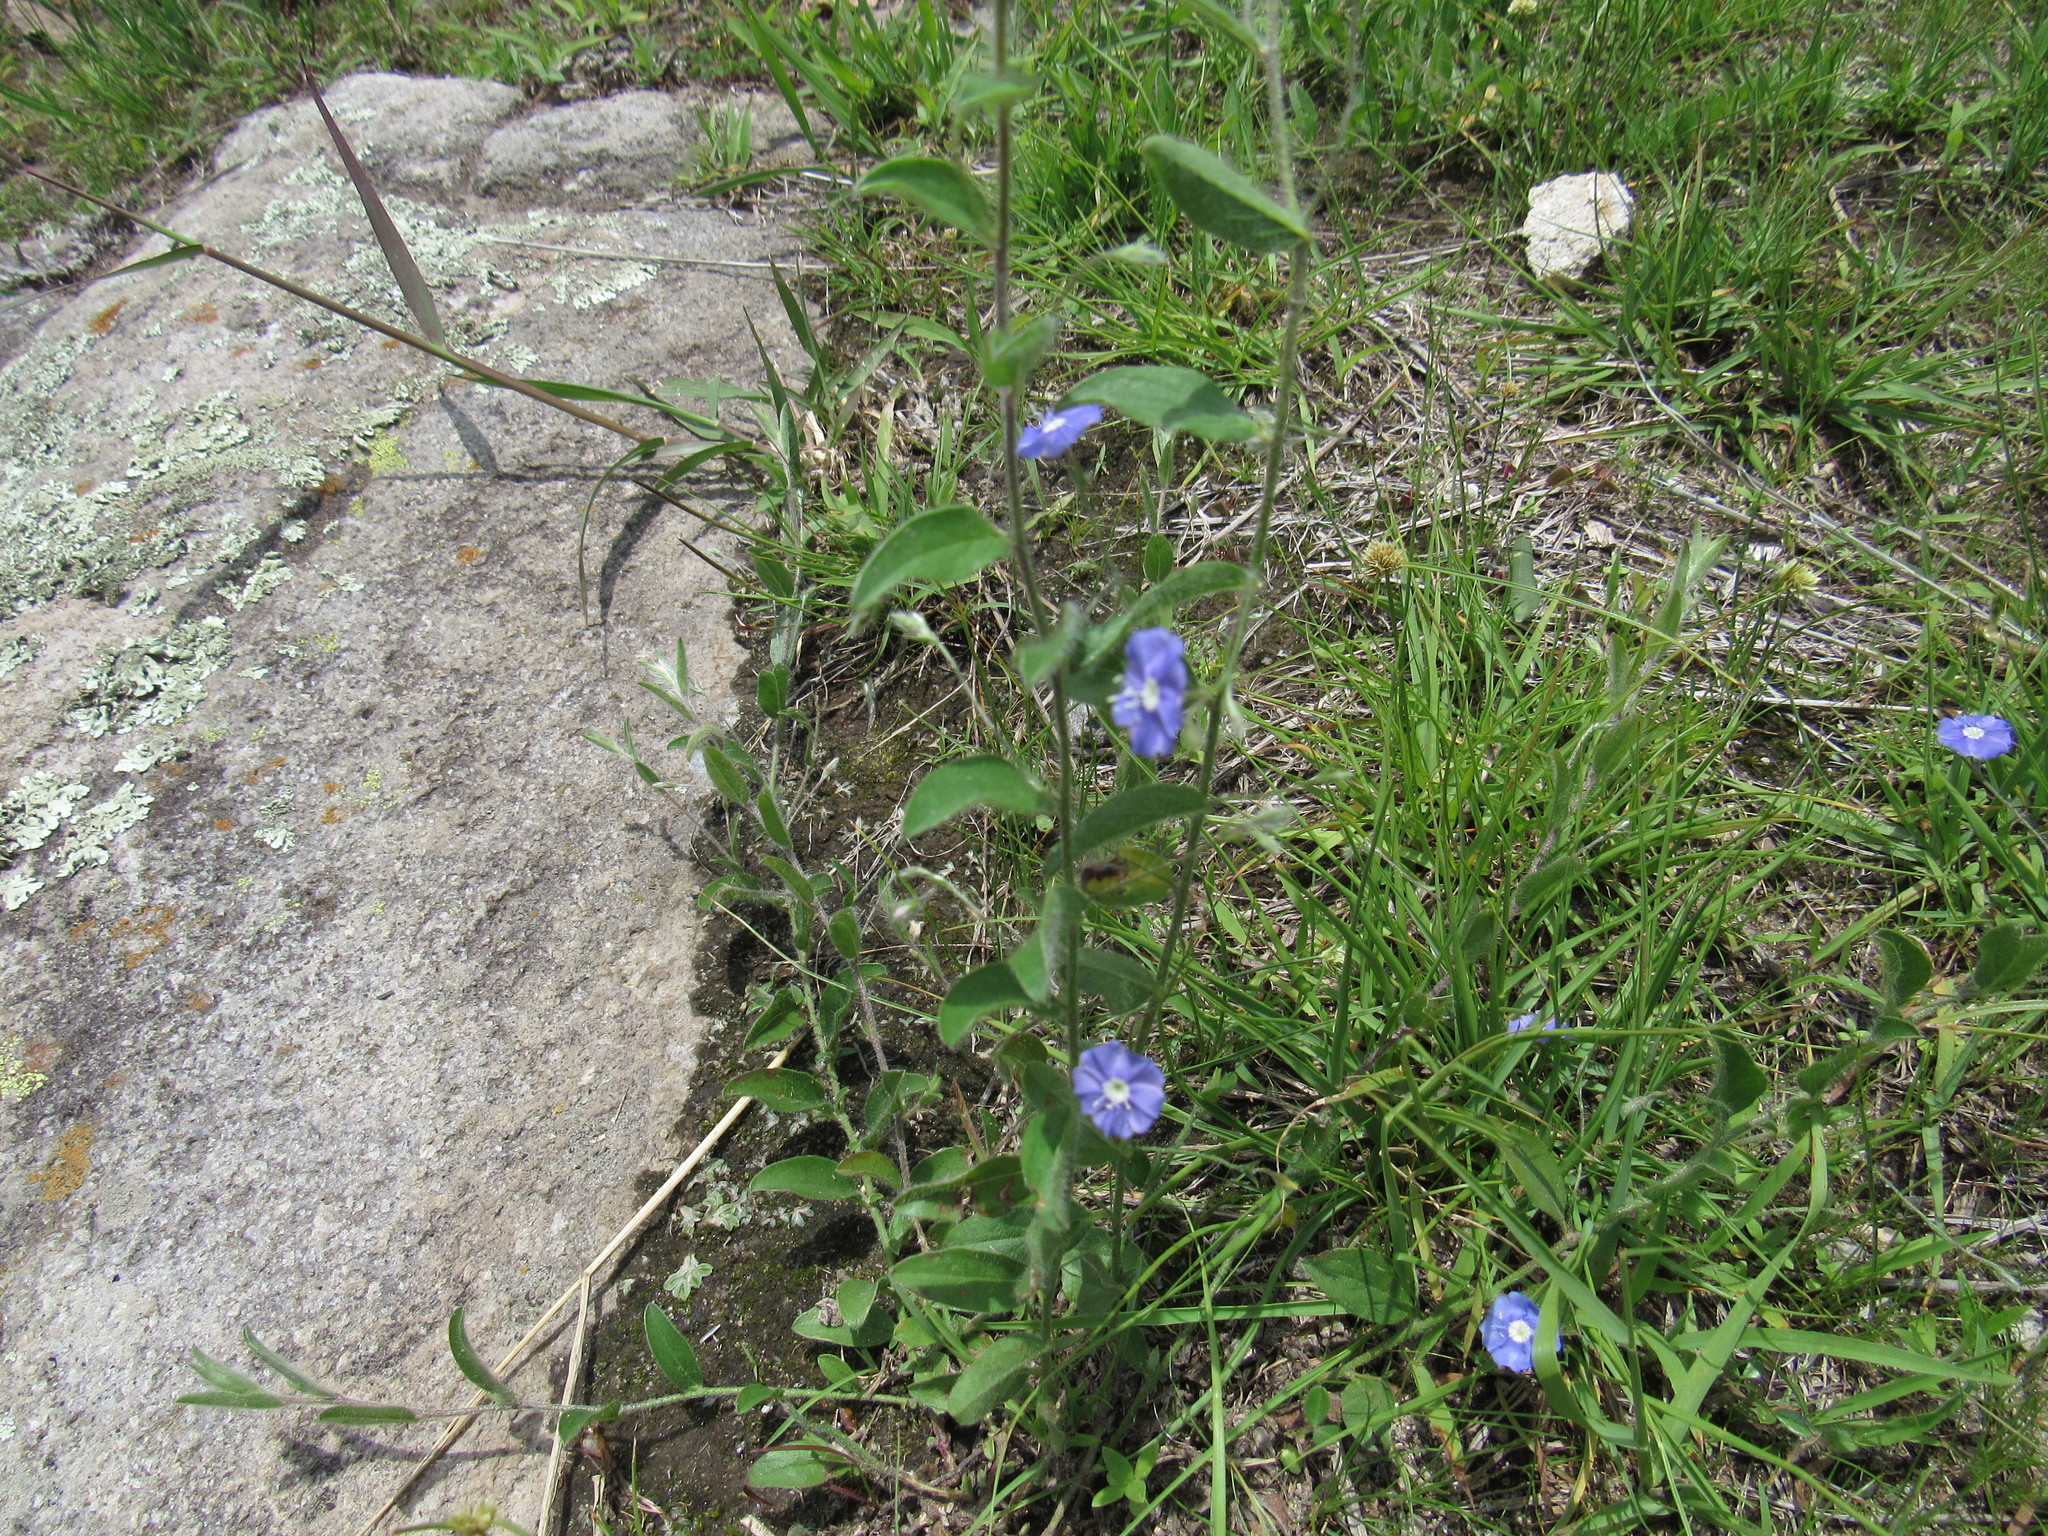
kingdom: Plantae
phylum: Tracheophyta
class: Magnoliopsida
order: Solanales
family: Convolvulaceae
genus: Evolvulus
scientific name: Evolvulus alsinoides
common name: Slender dwarf morning-glory
